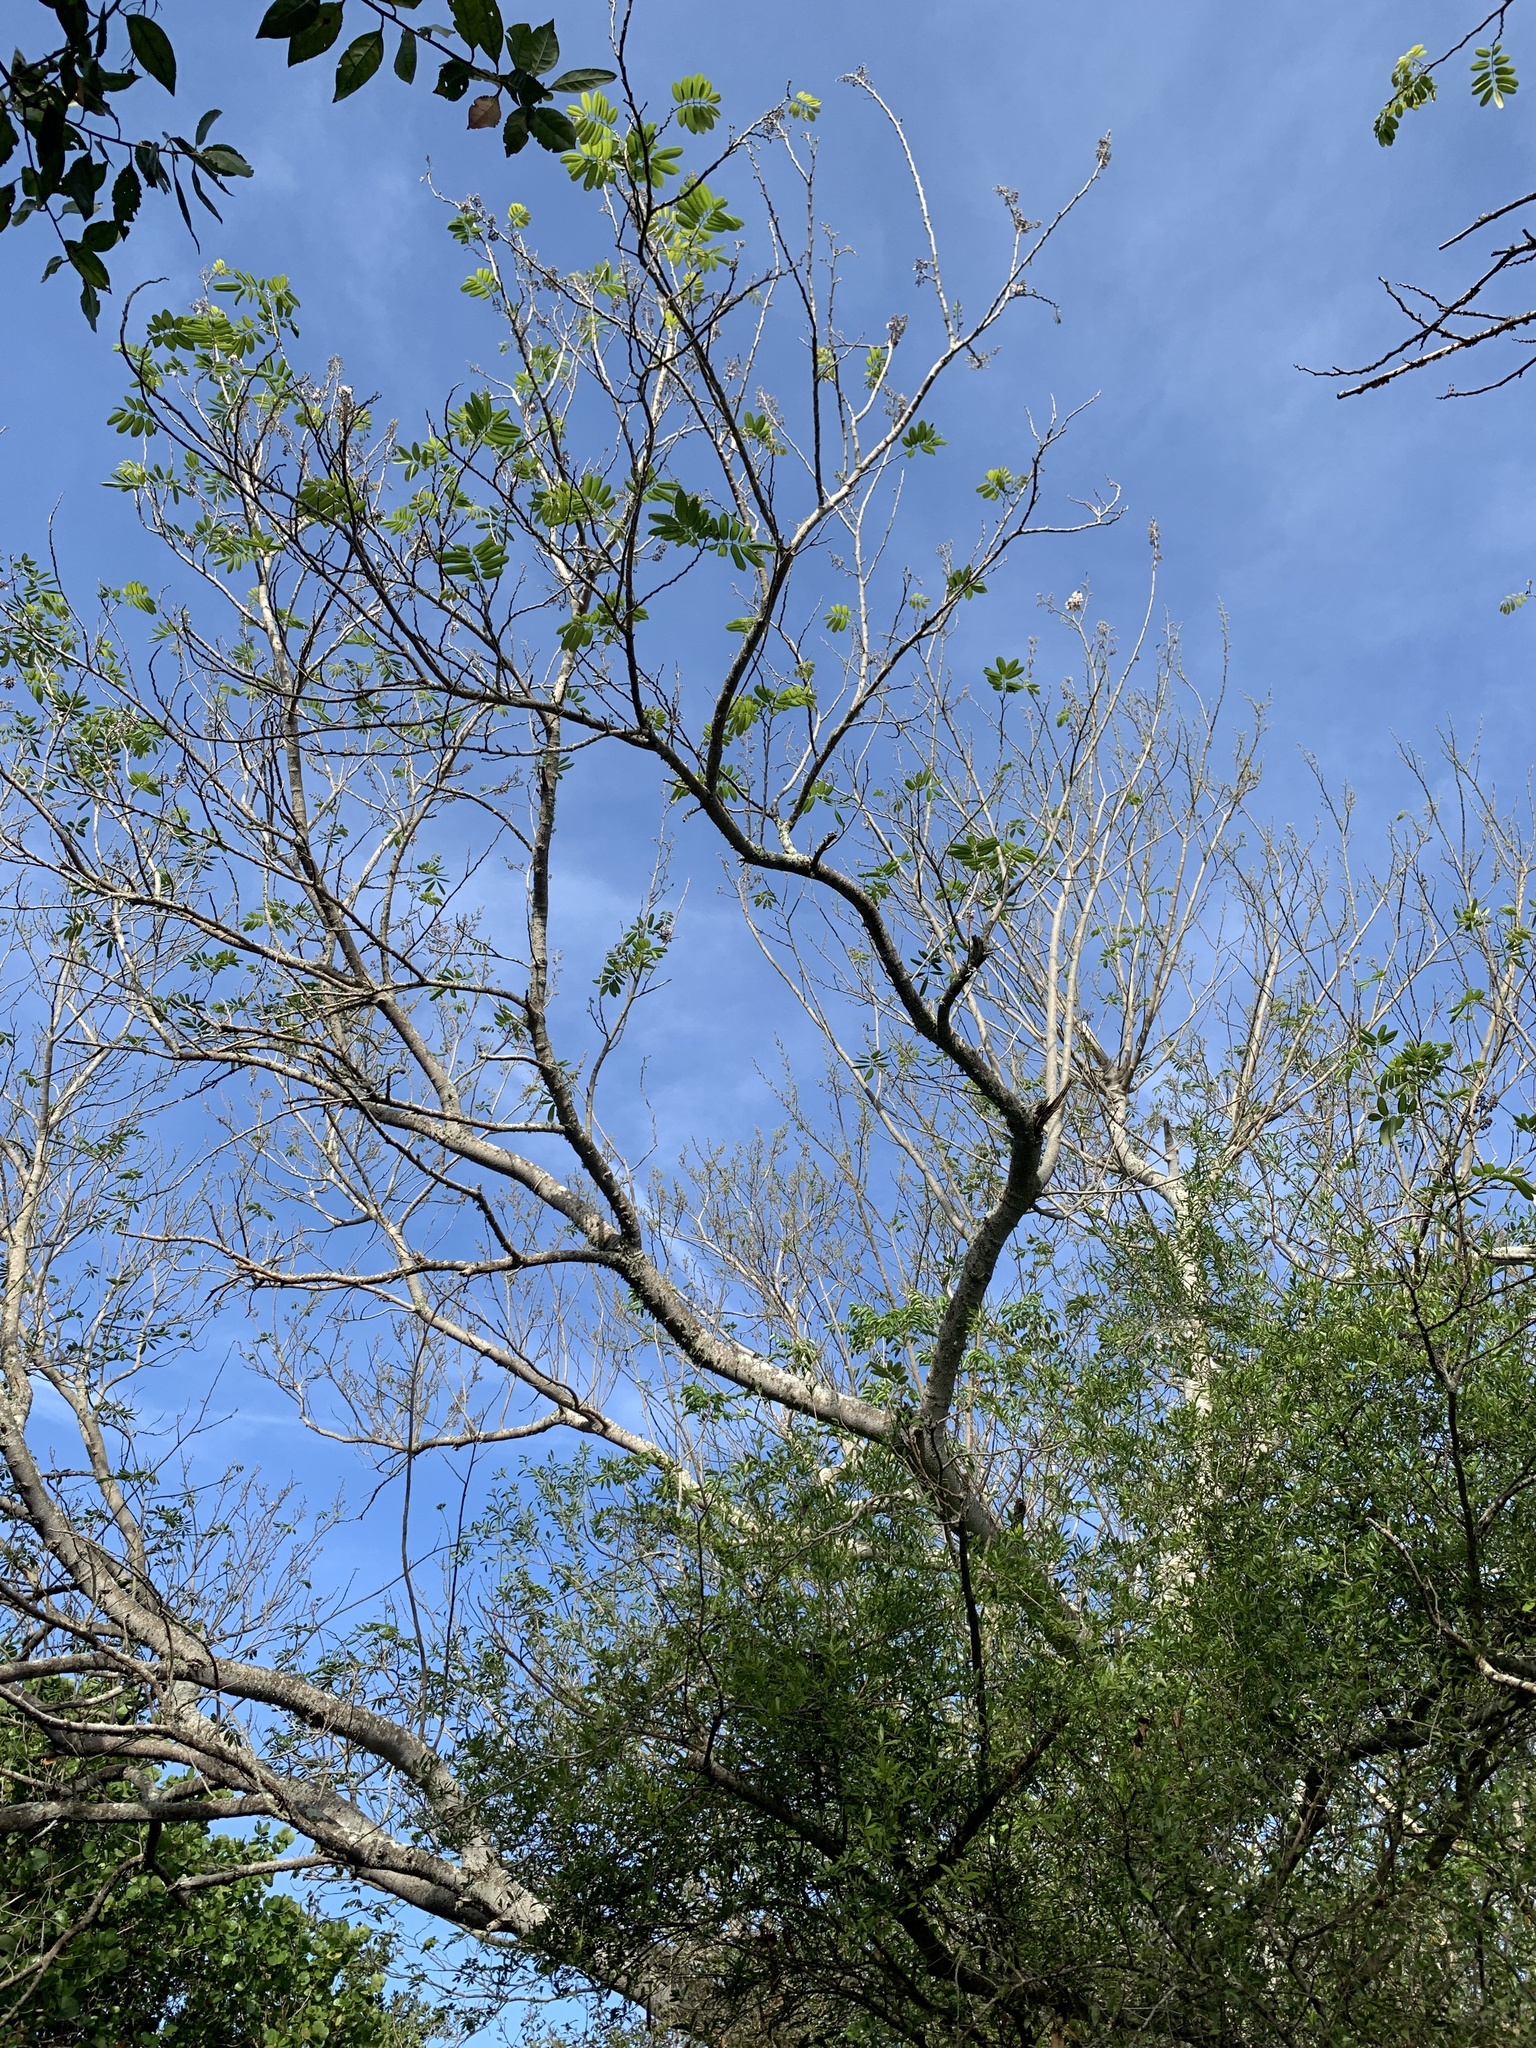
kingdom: Plantae
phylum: Tracheophyta
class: Magnoliopsida
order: Fabales
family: Fabaceae
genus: Piscidia
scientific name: Piscidia piscipula
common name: Florida fishpoison tree
